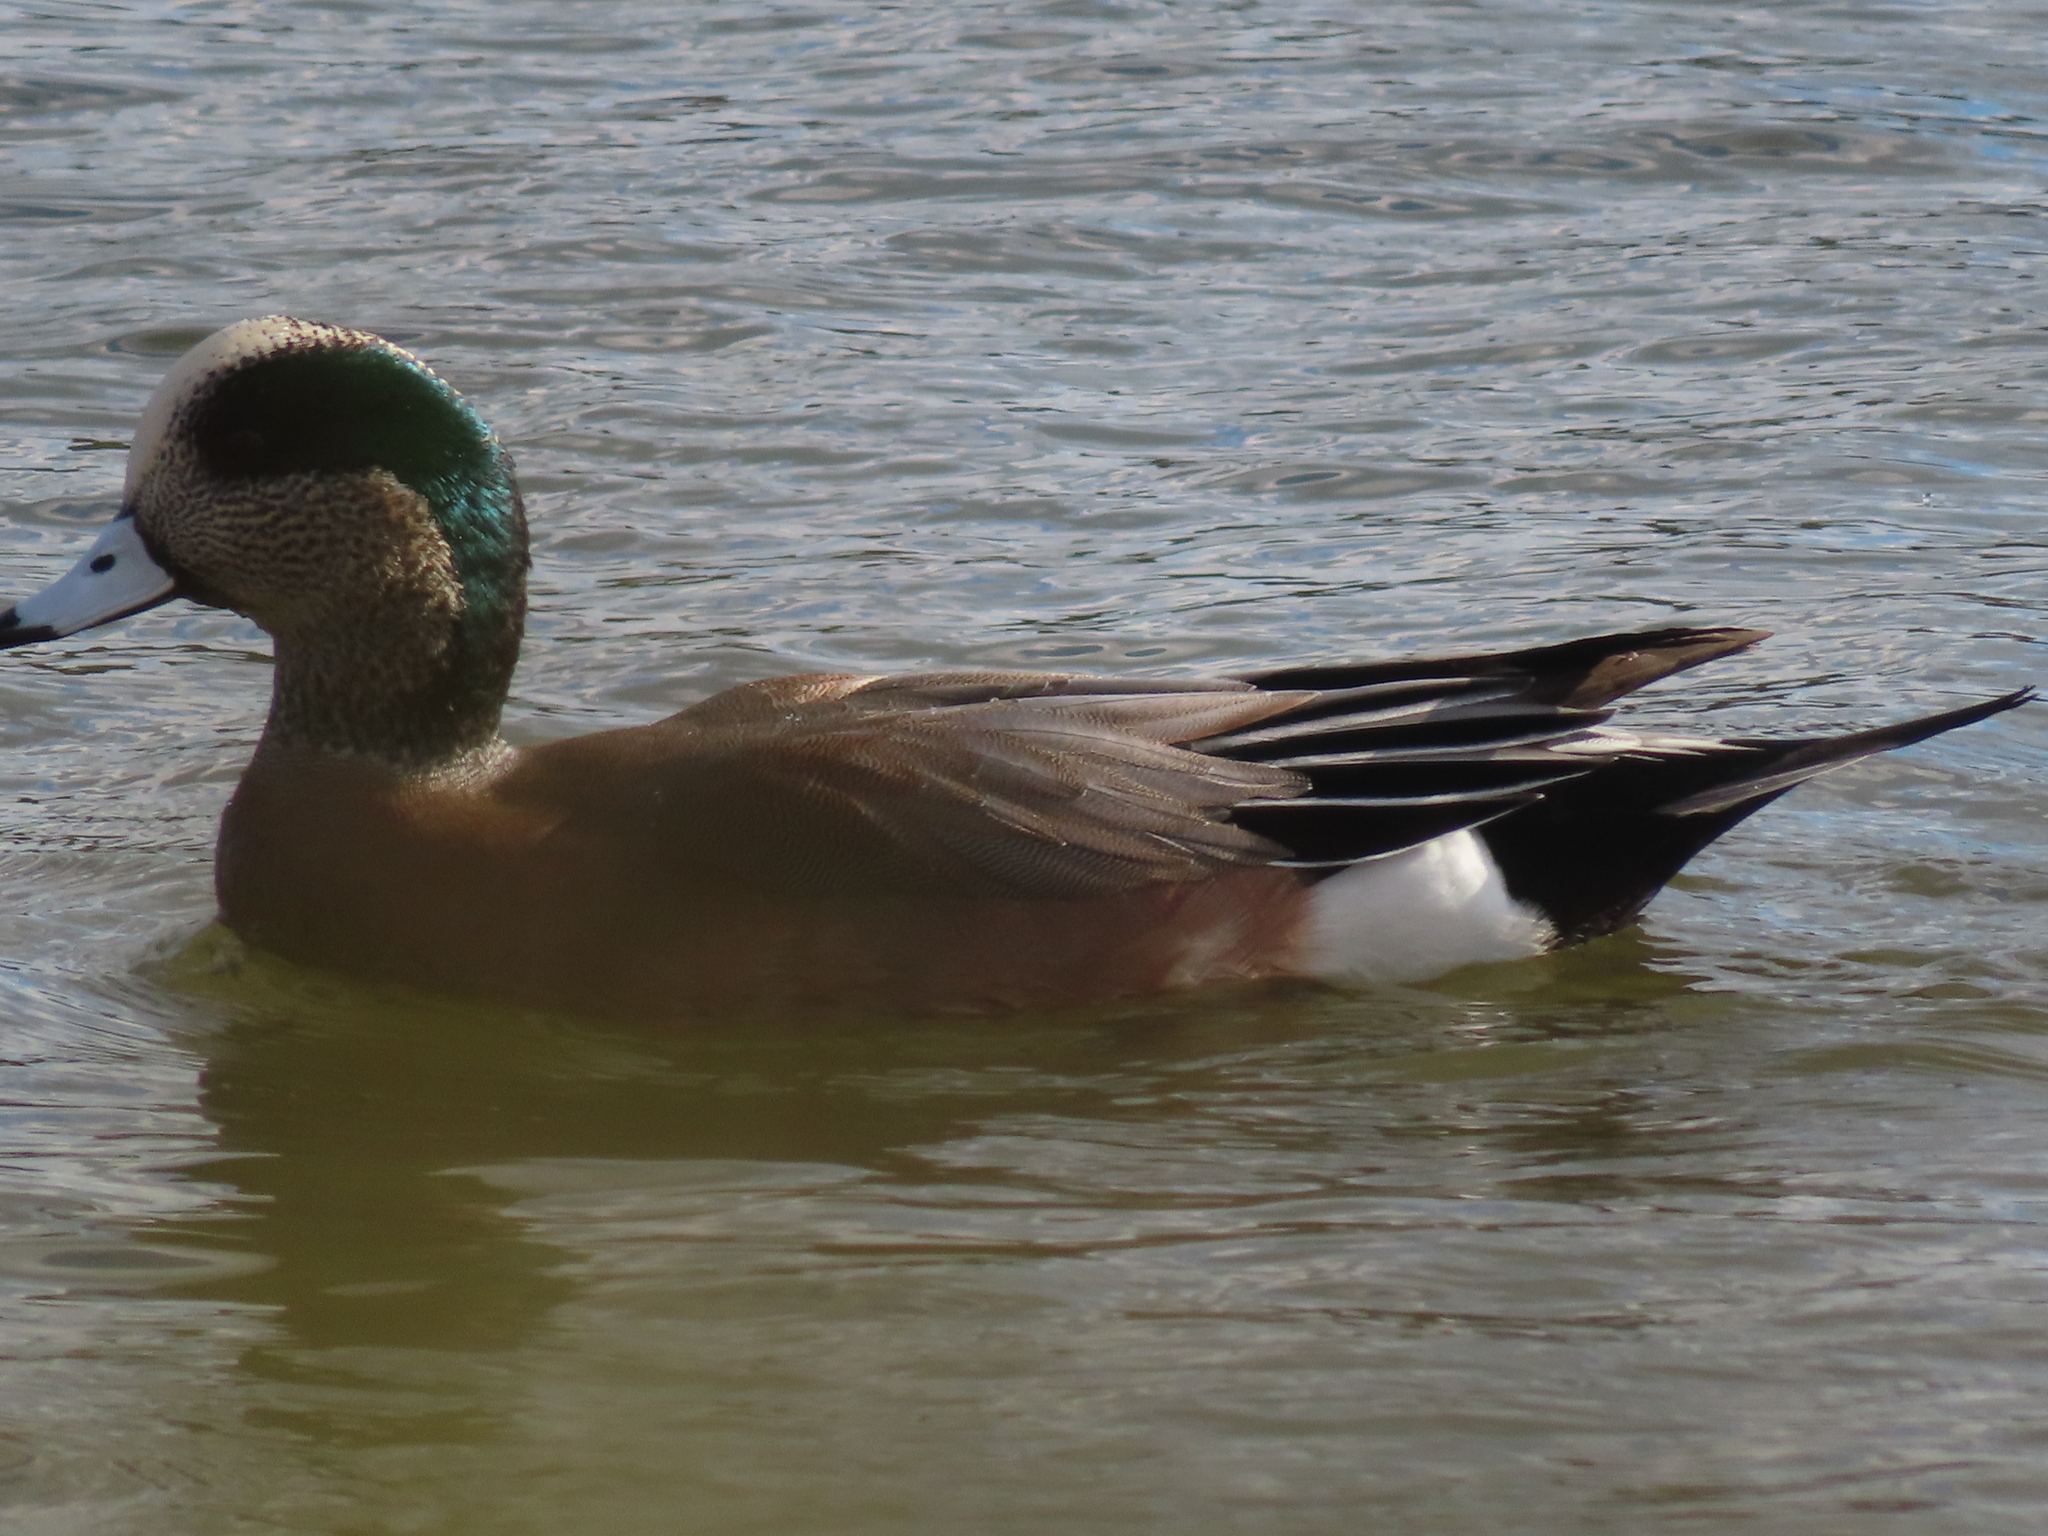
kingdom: Animalia
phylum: Chordata
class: Aves
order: Anseriformes
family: Anatidae
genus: Mareca
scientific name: Mareca americana
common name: American wigeon
